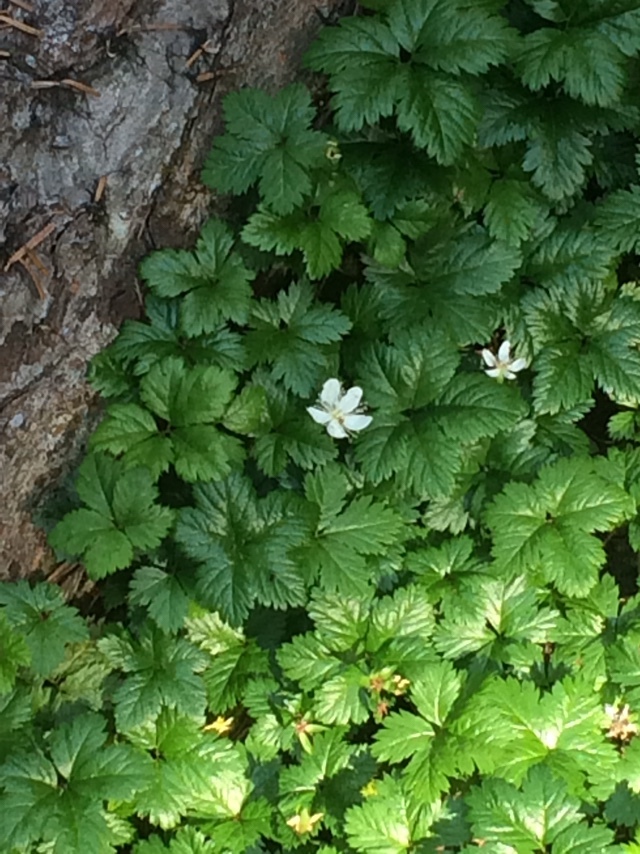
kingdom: Plantae
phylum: Tracheophyta
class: Magnoliopsida
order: Rosales
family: Rosaceae
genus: Rubus
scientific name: Rubus pedatus
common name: Creeping raspberry
